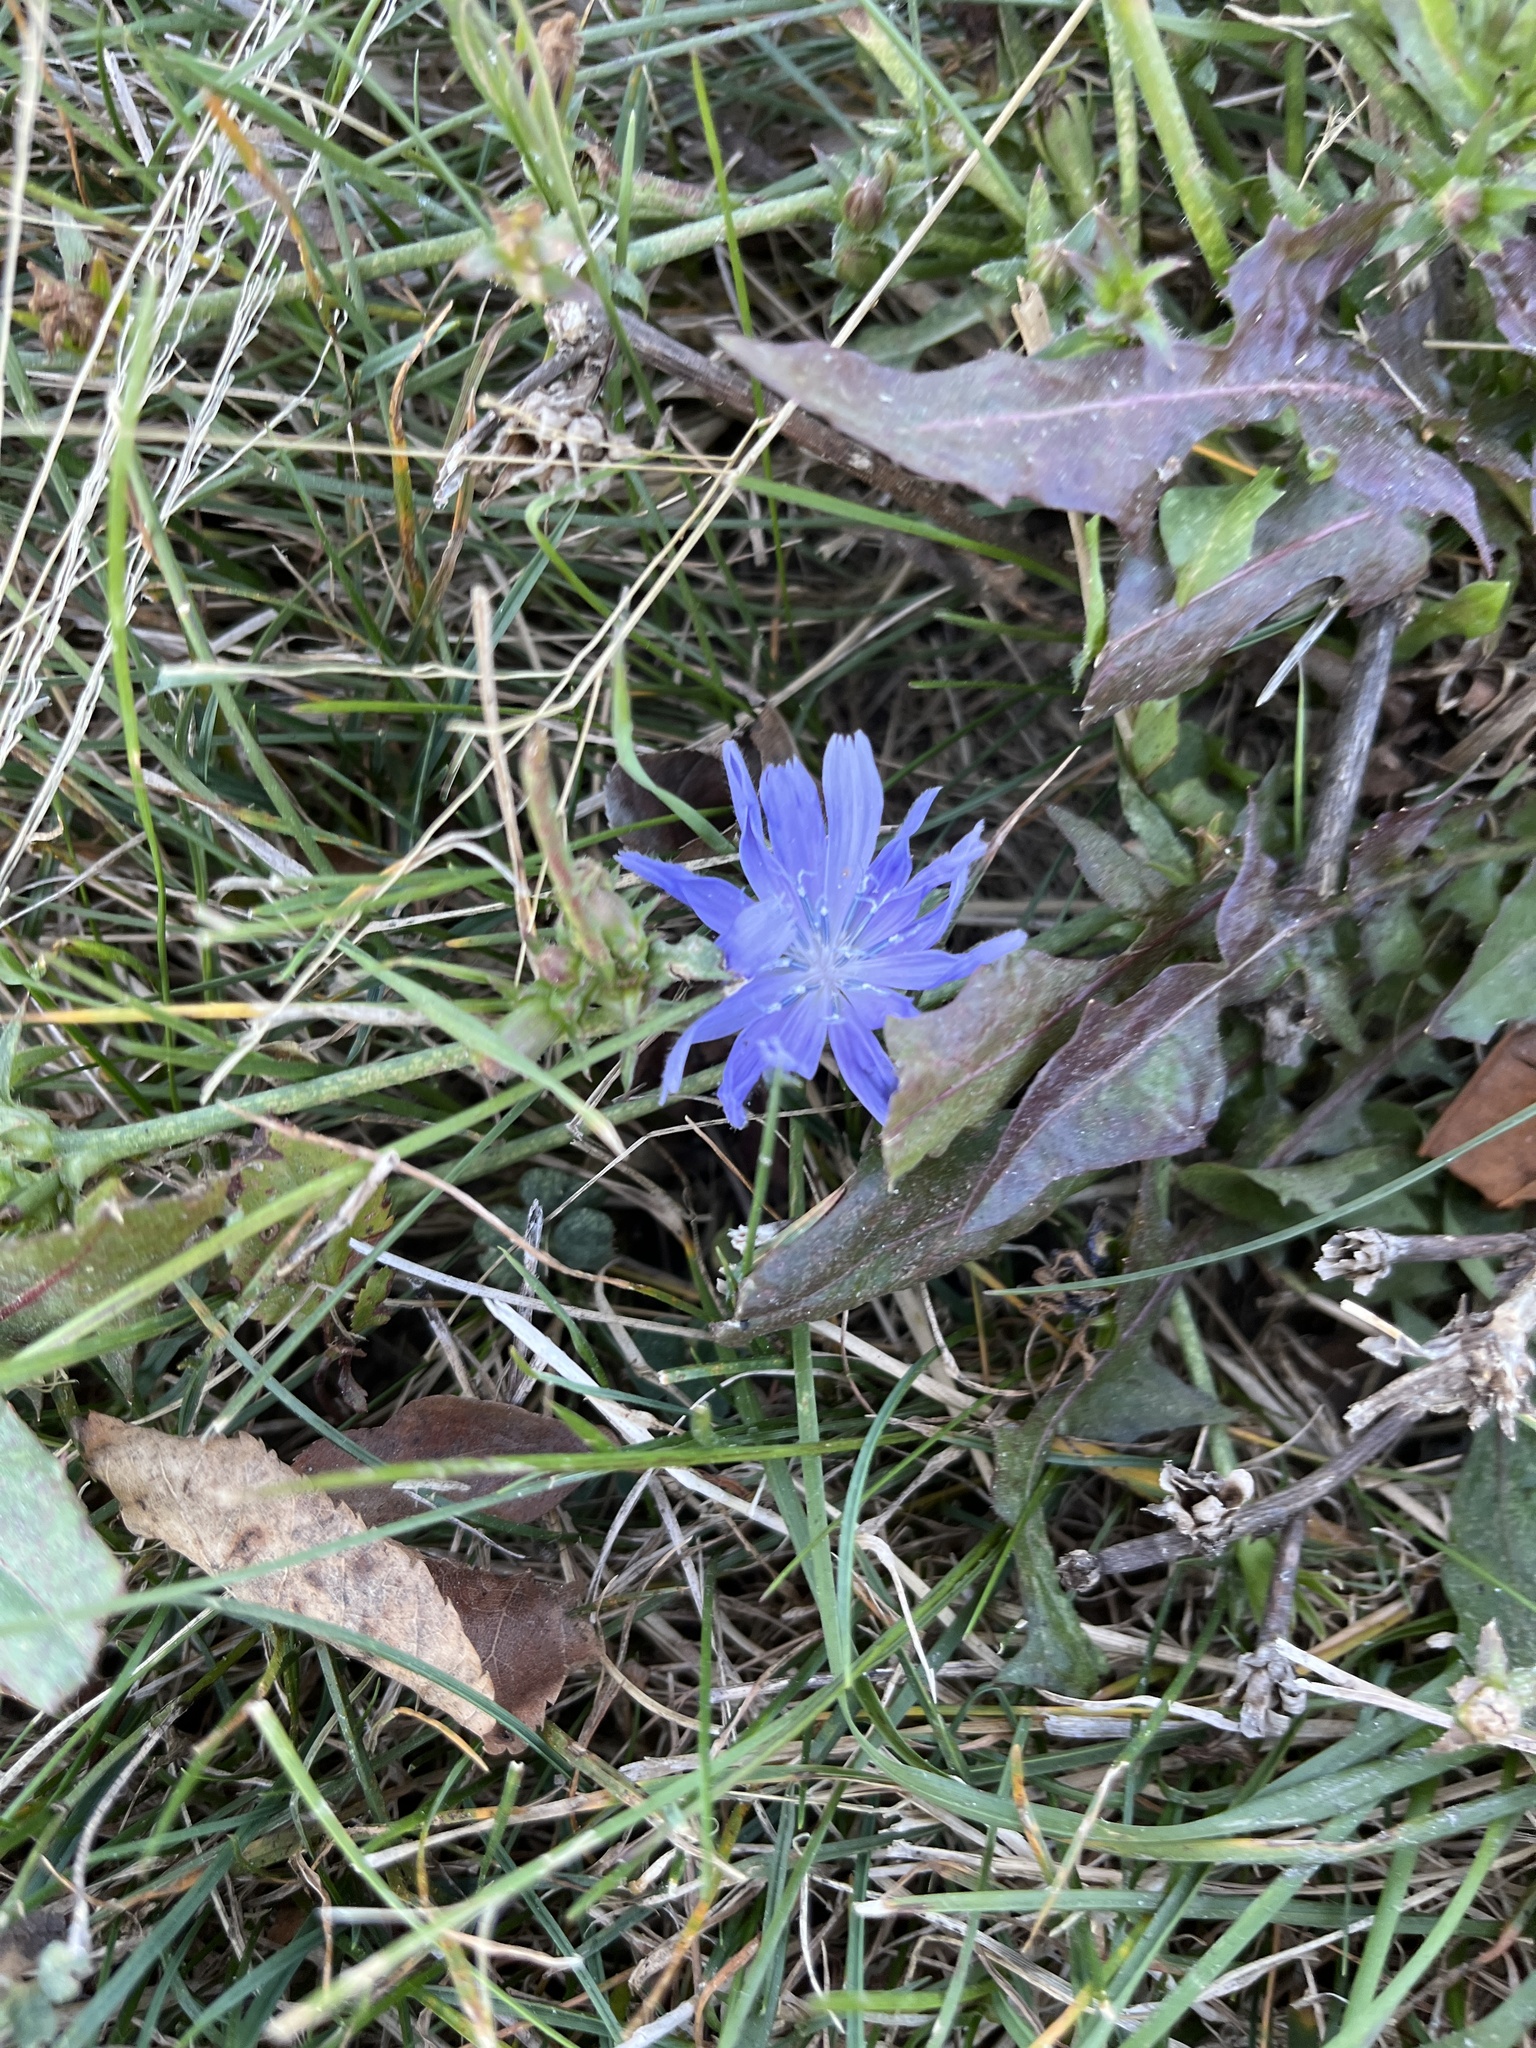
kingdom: Plantae
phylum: Tracheophyta
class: Magnoliopsida
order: Asterales
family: Asteraceae
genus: Cichorium
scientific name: Cichorium intybus
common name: Chicory
